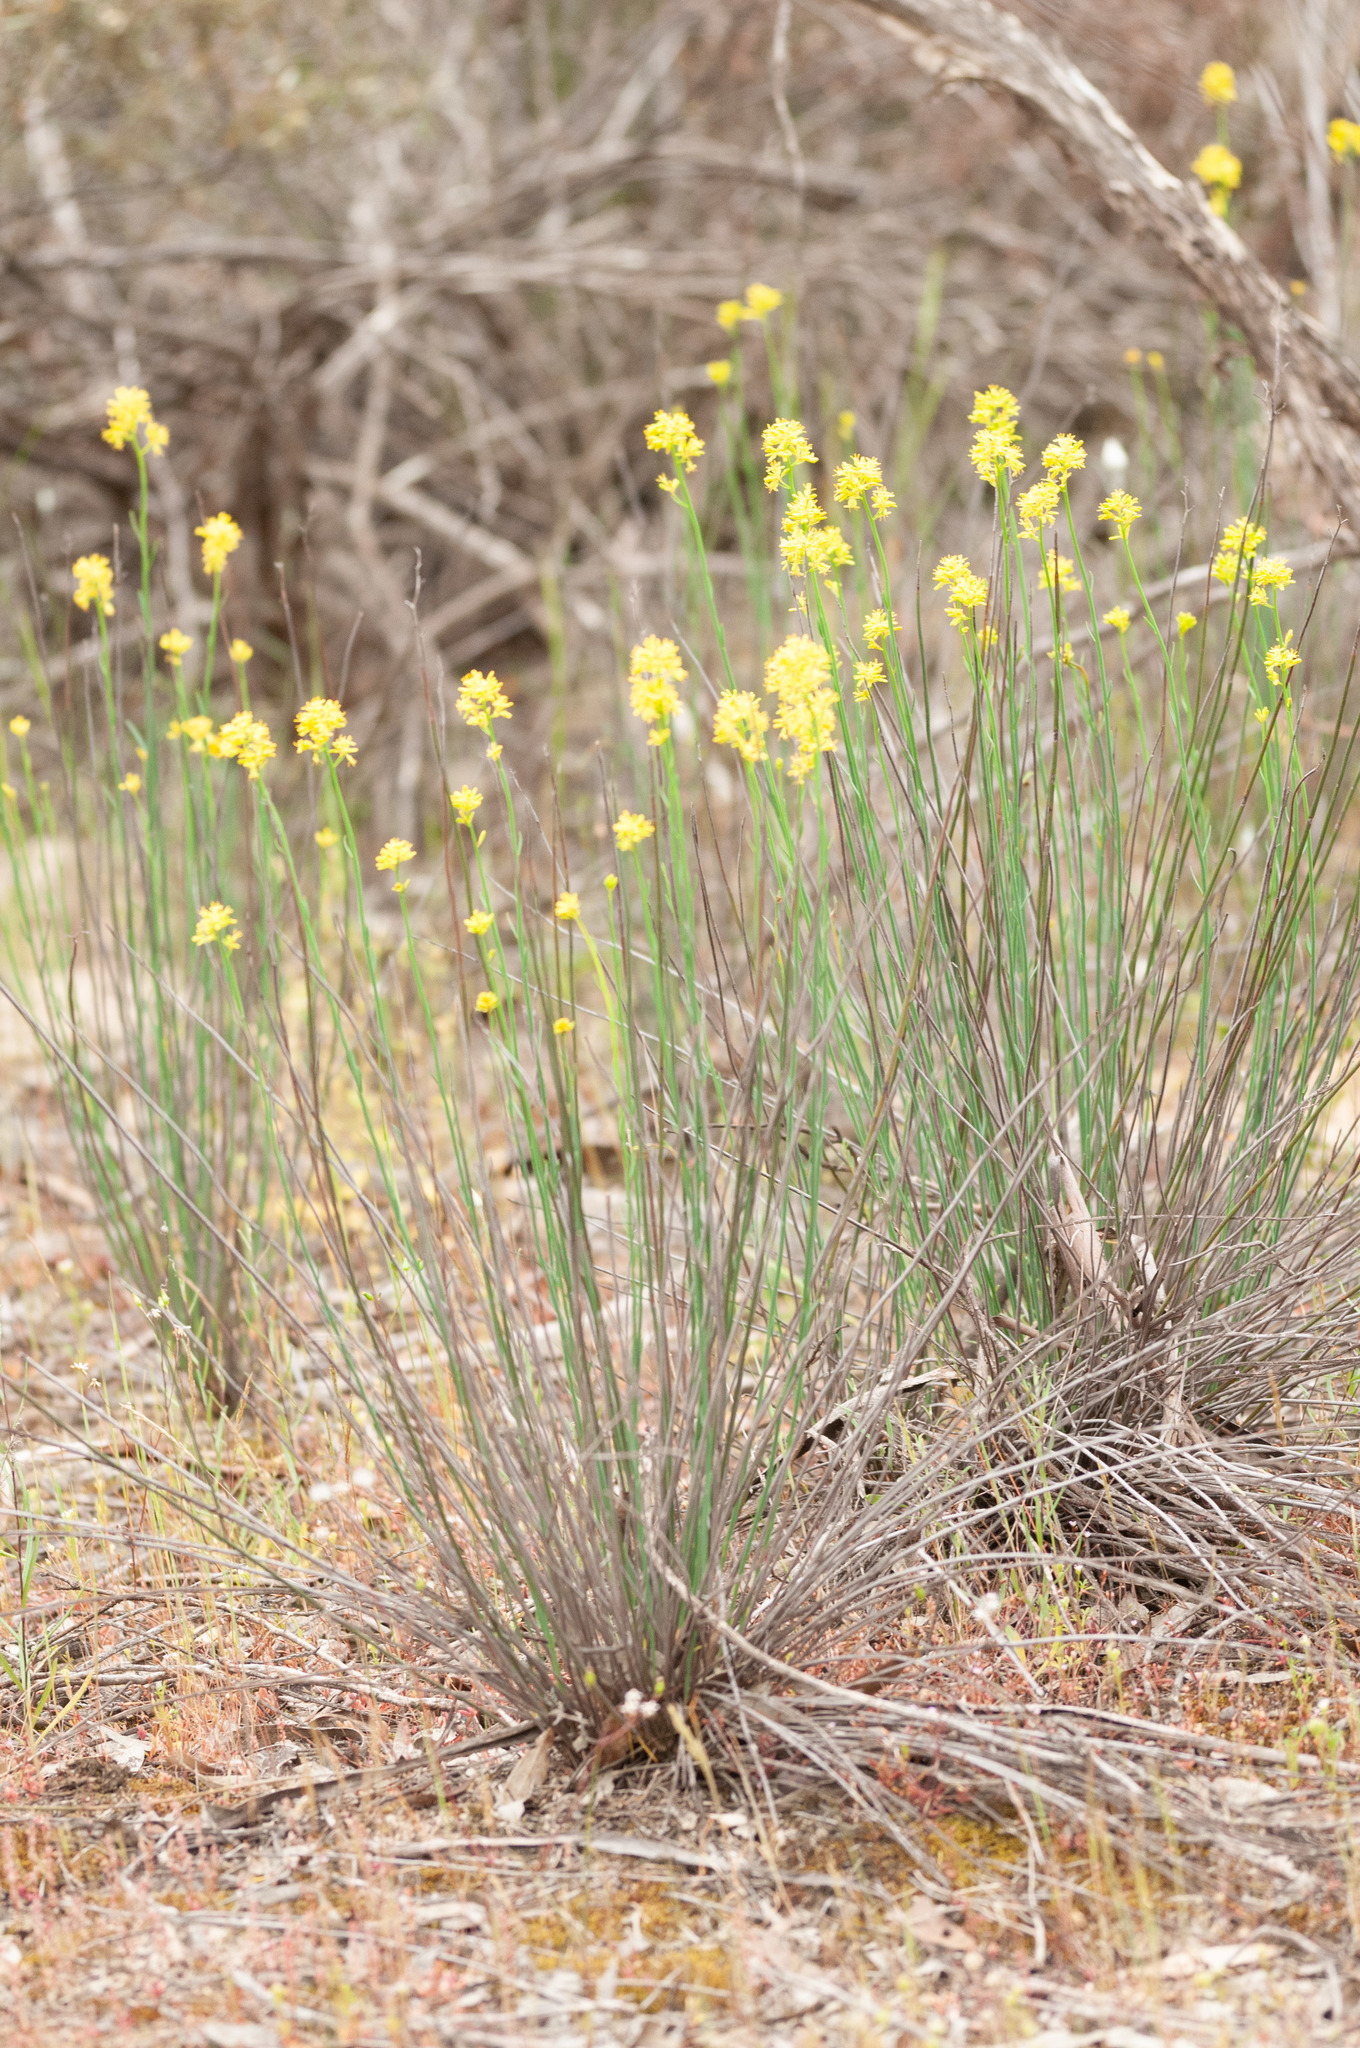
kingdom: Plantae
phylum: Tracheophyta
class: Magnoliopsida
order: Saxifragales
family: Haloragaceae
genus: Glischrocaryon
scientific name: Glischrocaryon behrii
